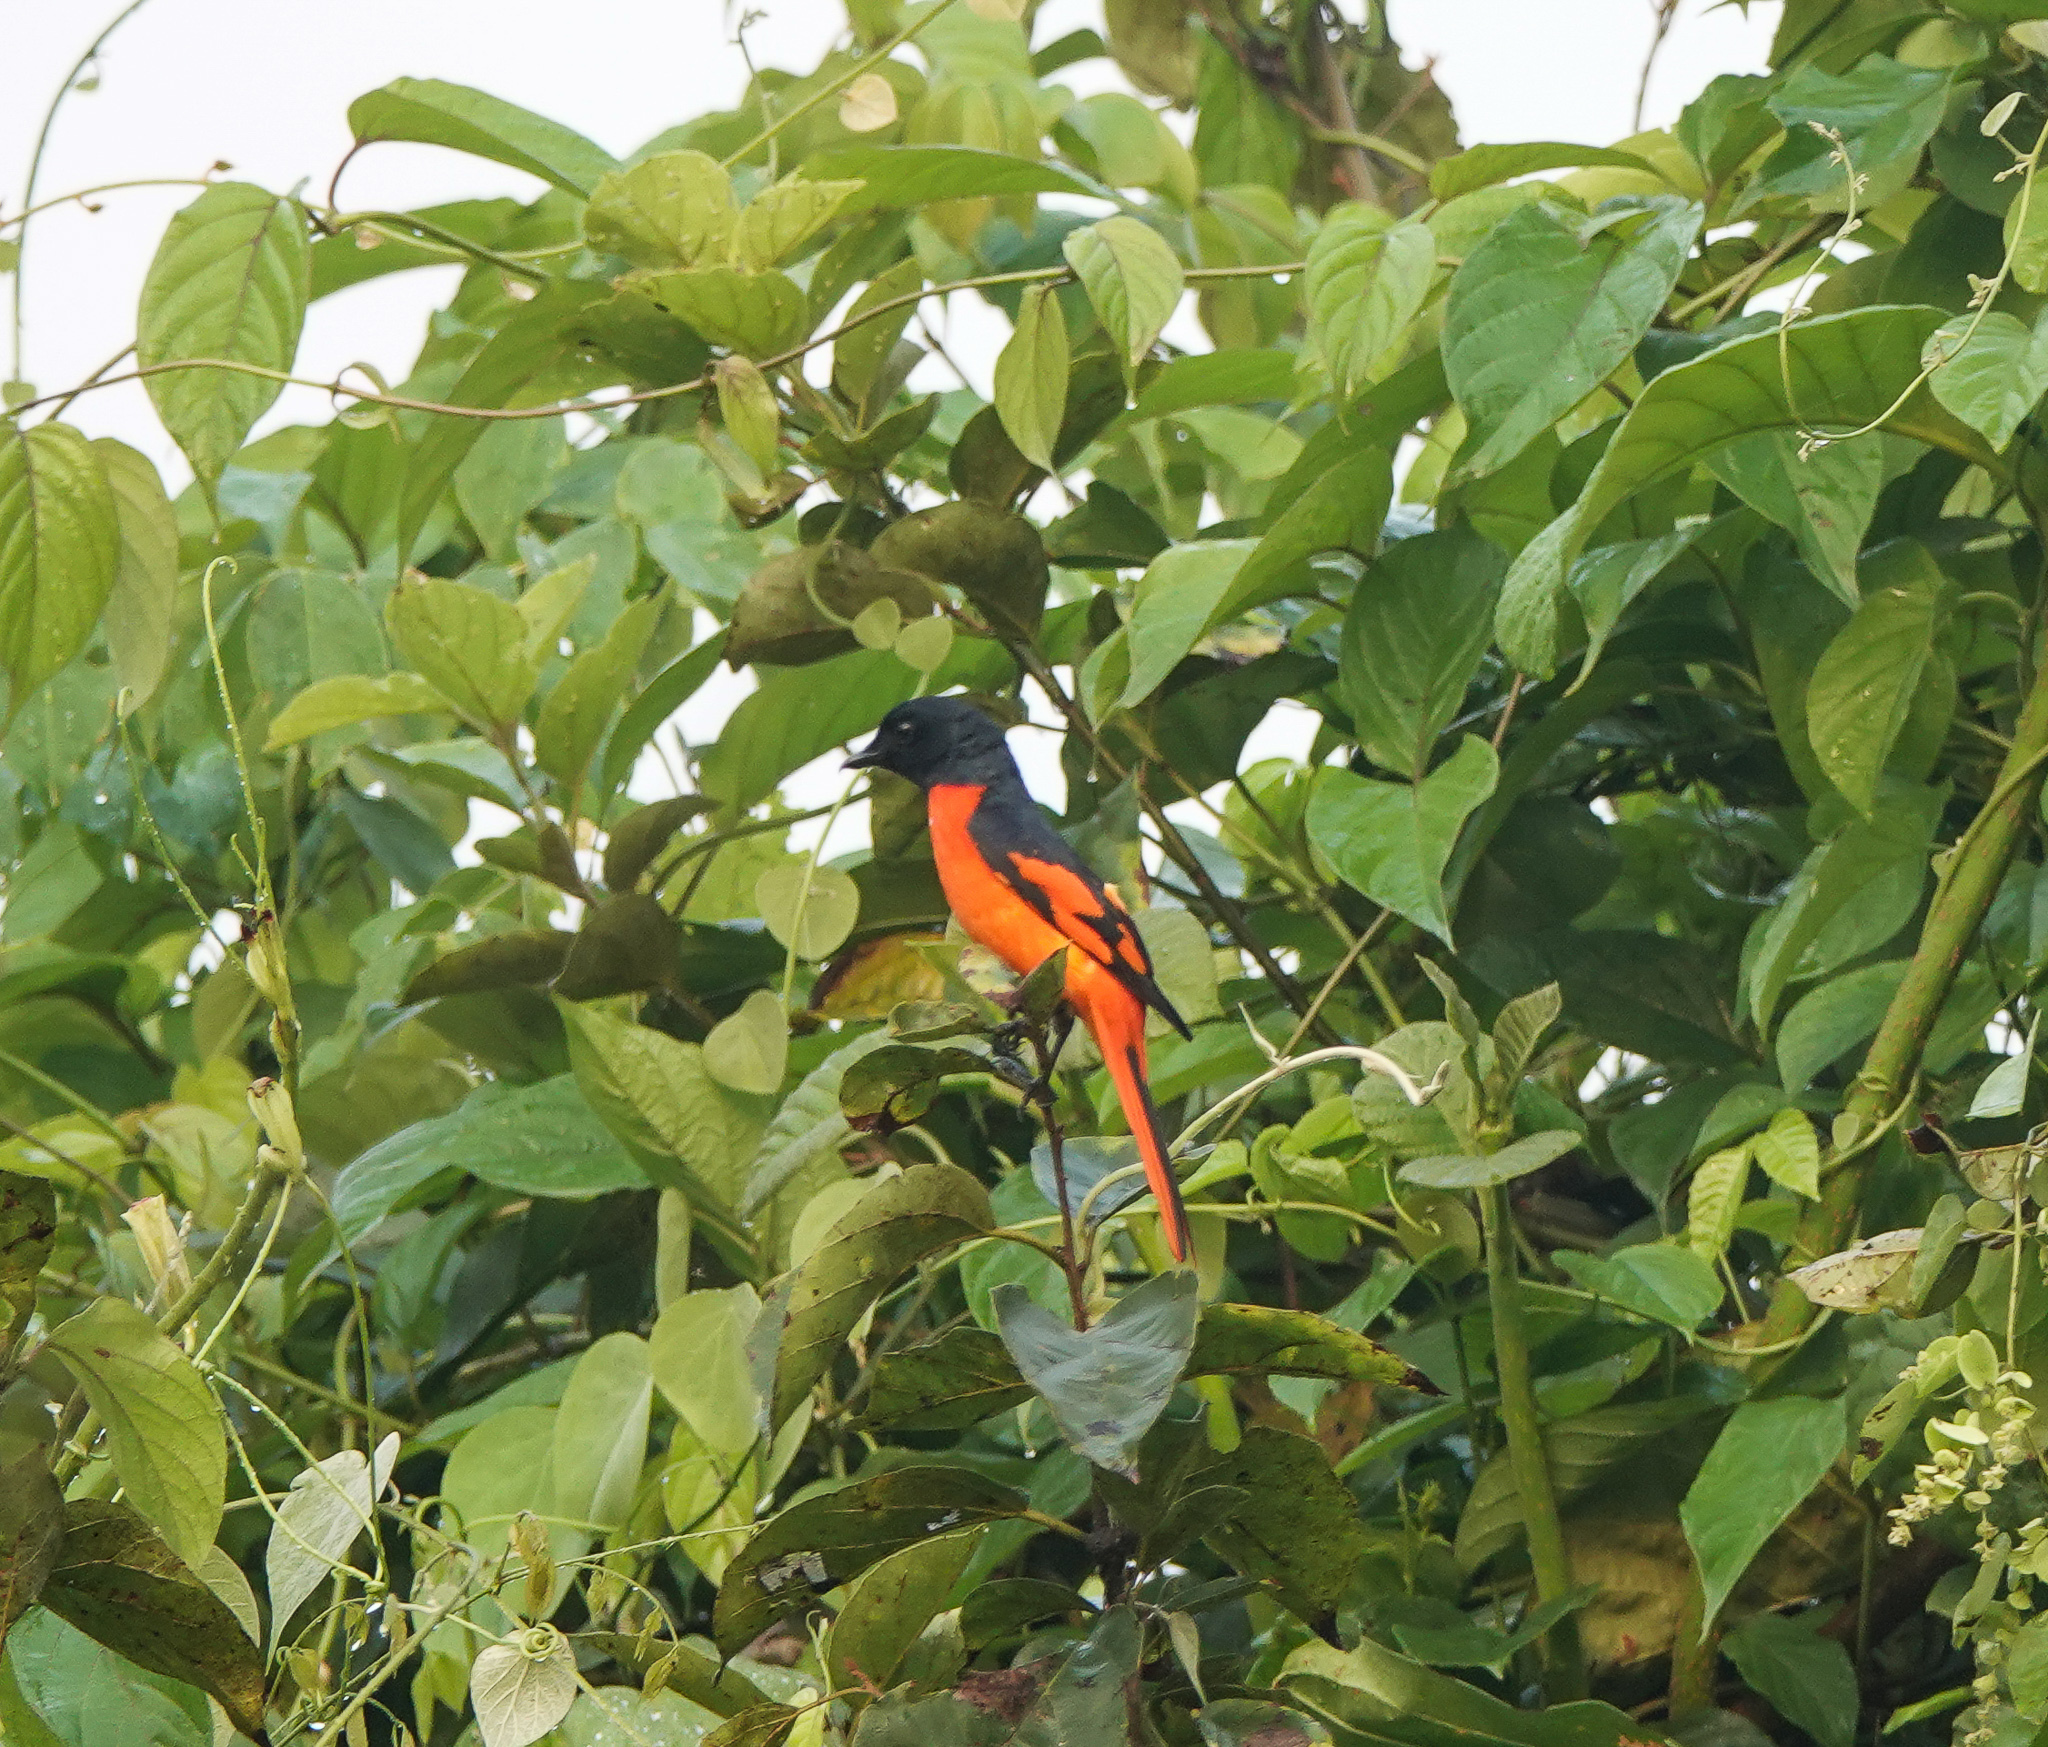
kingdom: Animalia
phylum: Chordata
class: Aves
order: Passeriformes
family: Campephagidae
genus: Pericrocotus
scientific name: Pericrocotus speciosus
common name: Scarlet minivet
